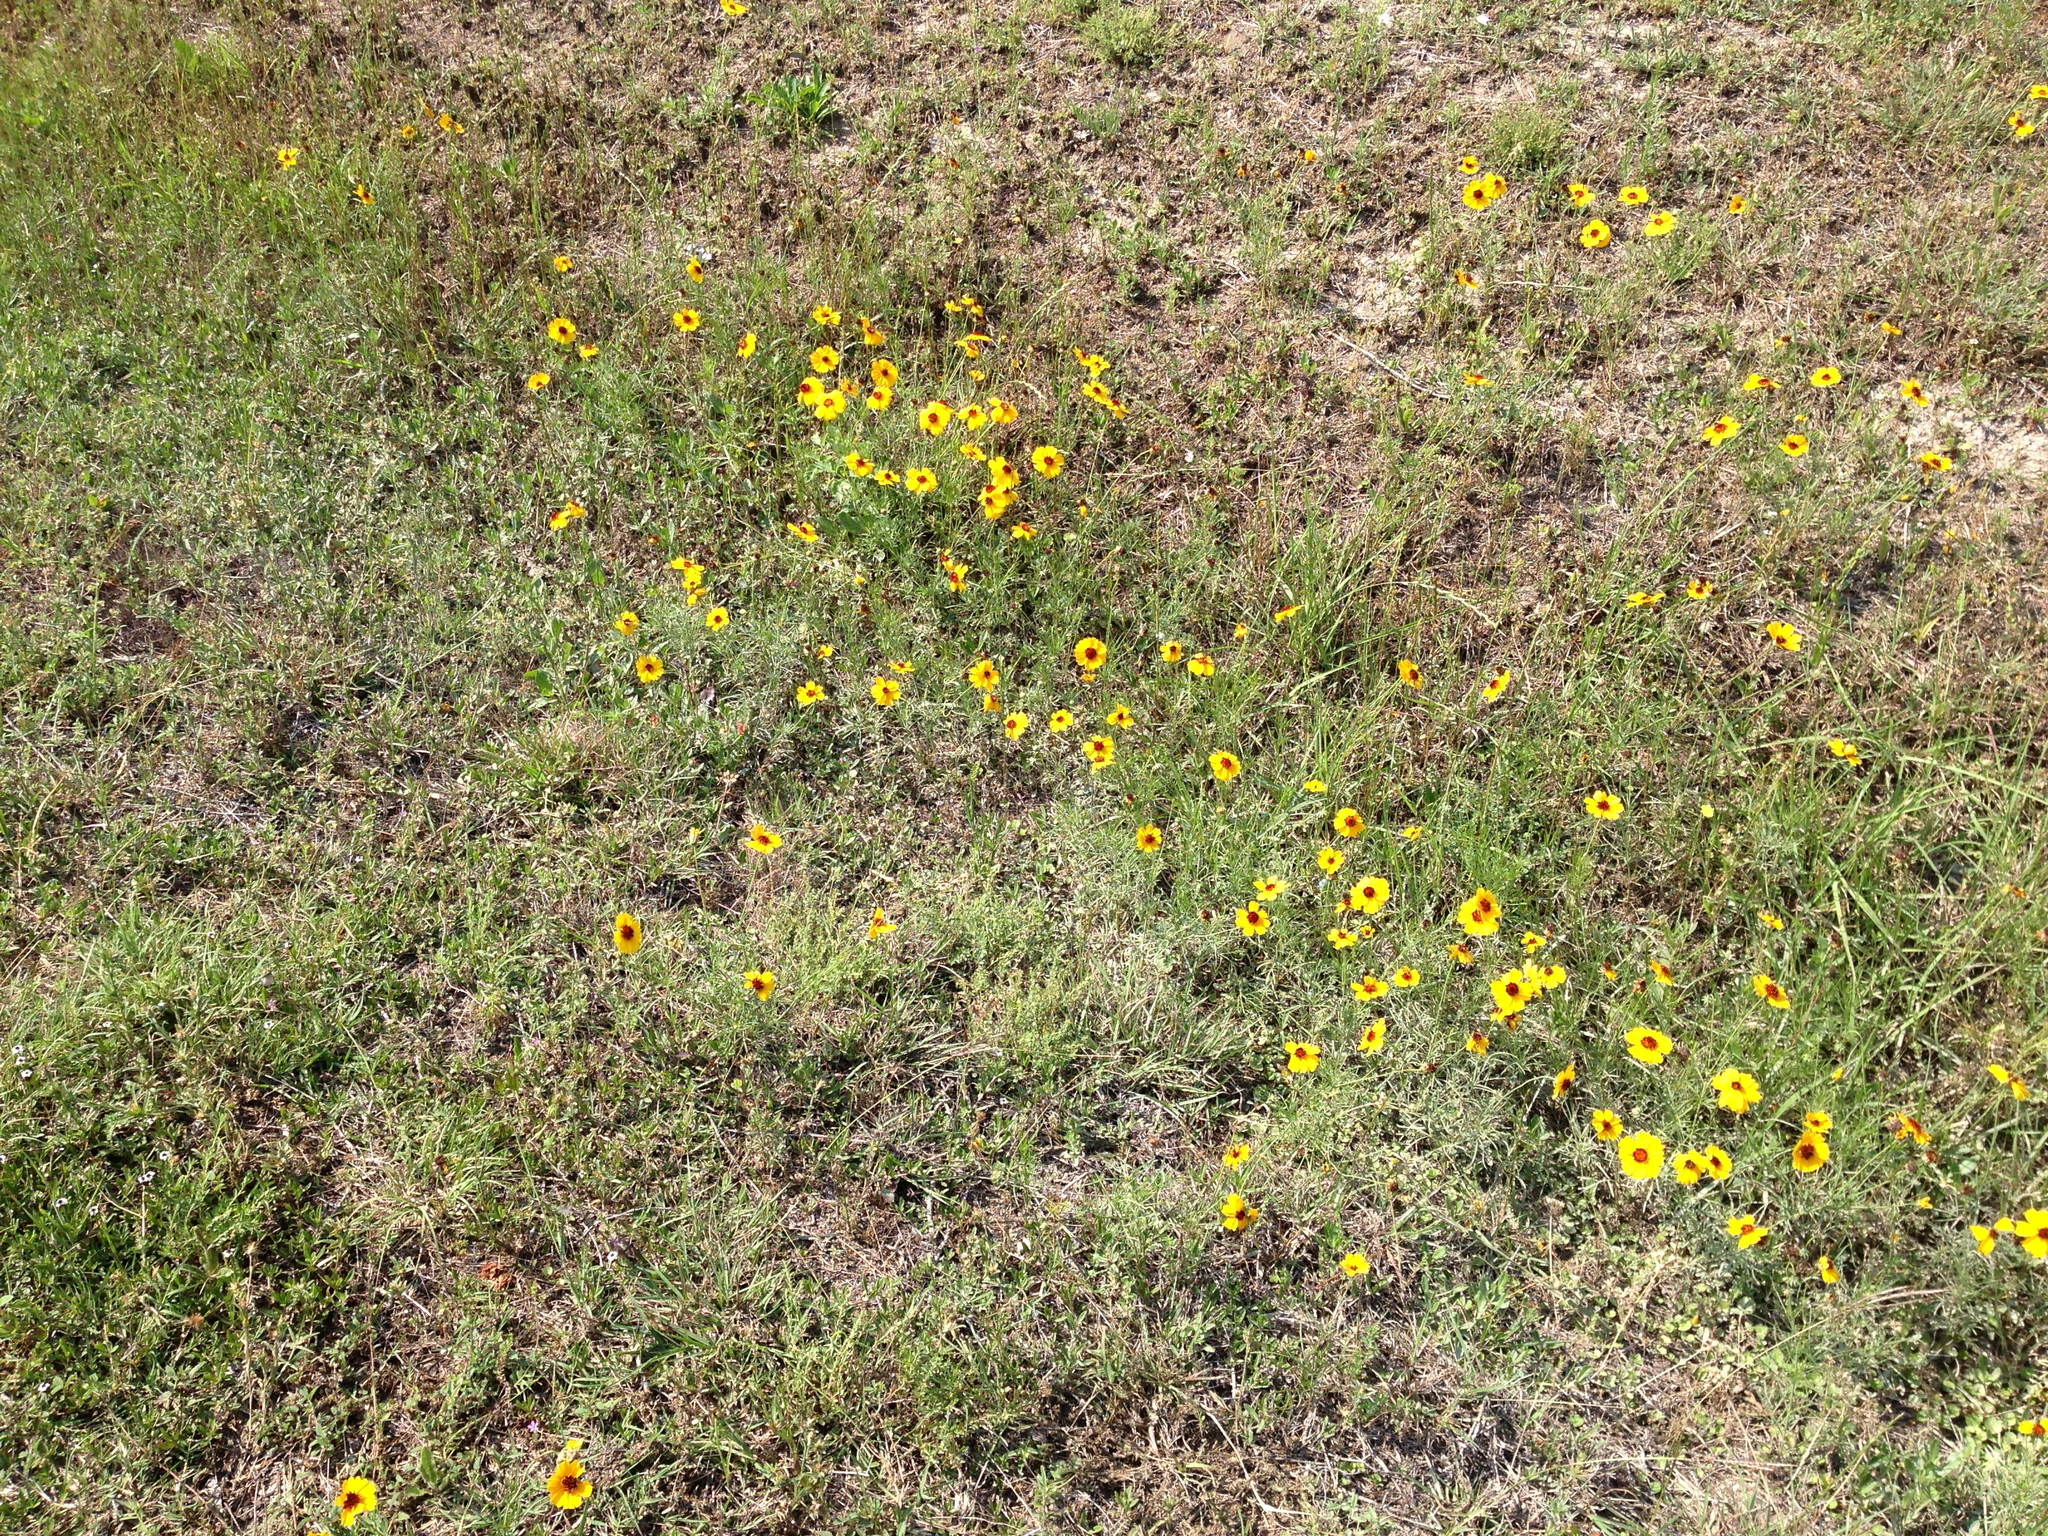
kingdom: Plantae
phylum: Tracheophyta
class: Magnoliopsida
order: Asterales
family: Asteraceae
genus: Thelesperma
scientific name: Thelesperma filifolium
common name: Stiff greenthread
